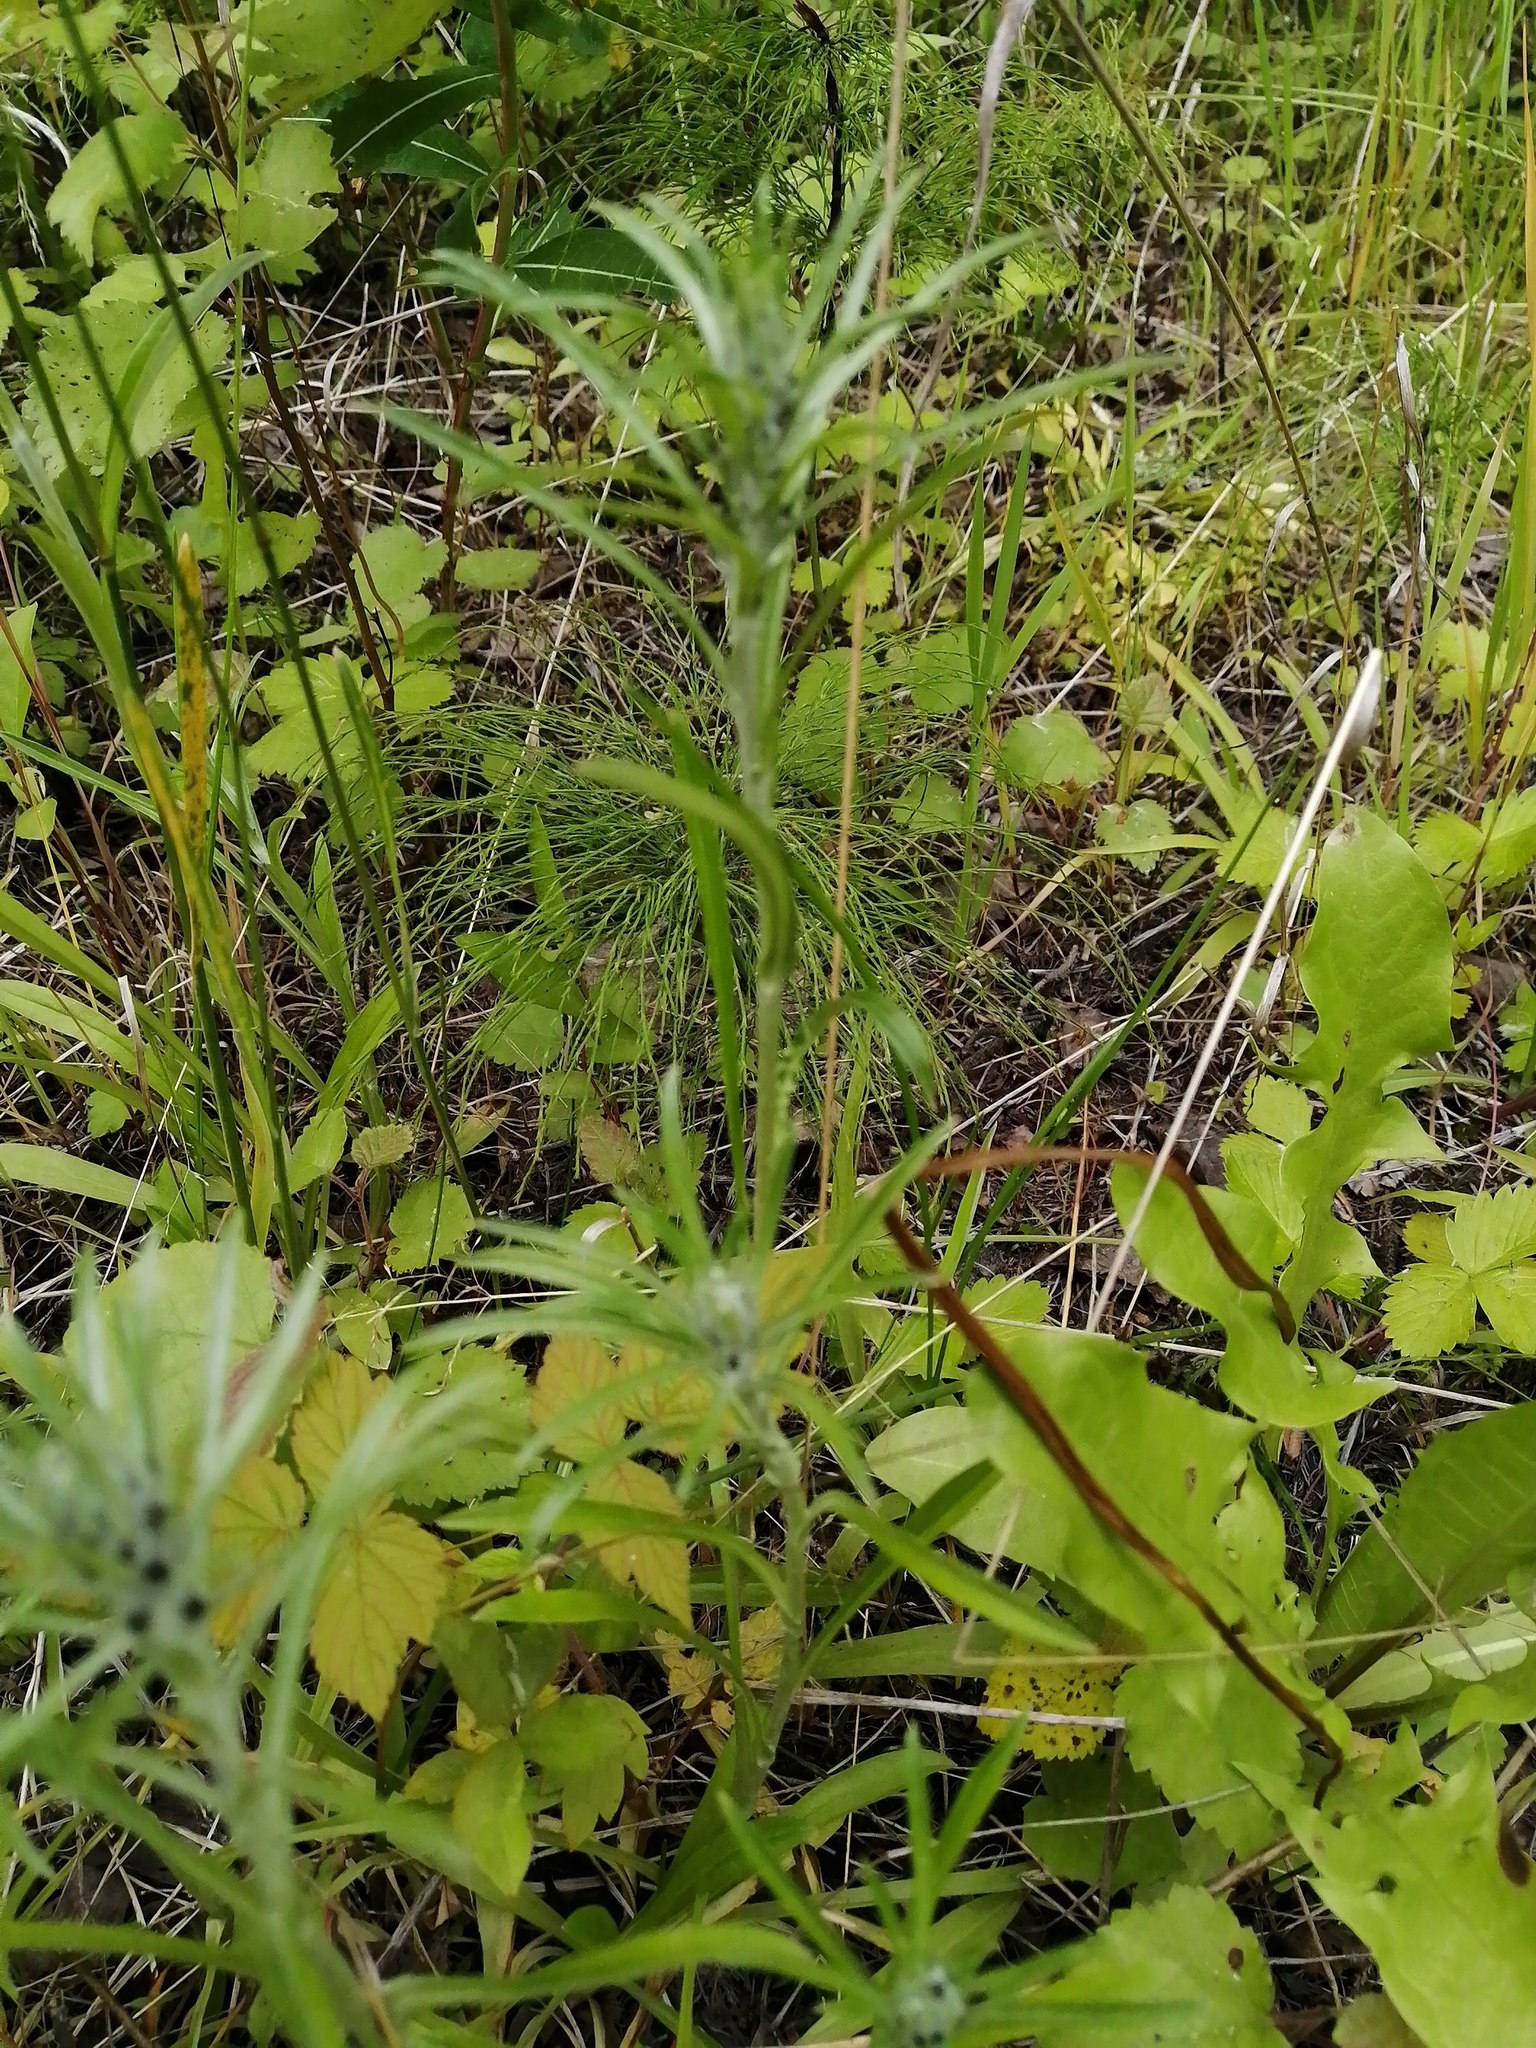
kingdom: Plantae
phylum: Tracheophyta
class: Magnoliopsida
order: Asterales
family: Asteraceae
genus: Omalotheca
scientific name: Omalotheca sylvatica
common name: Heath cudweed
